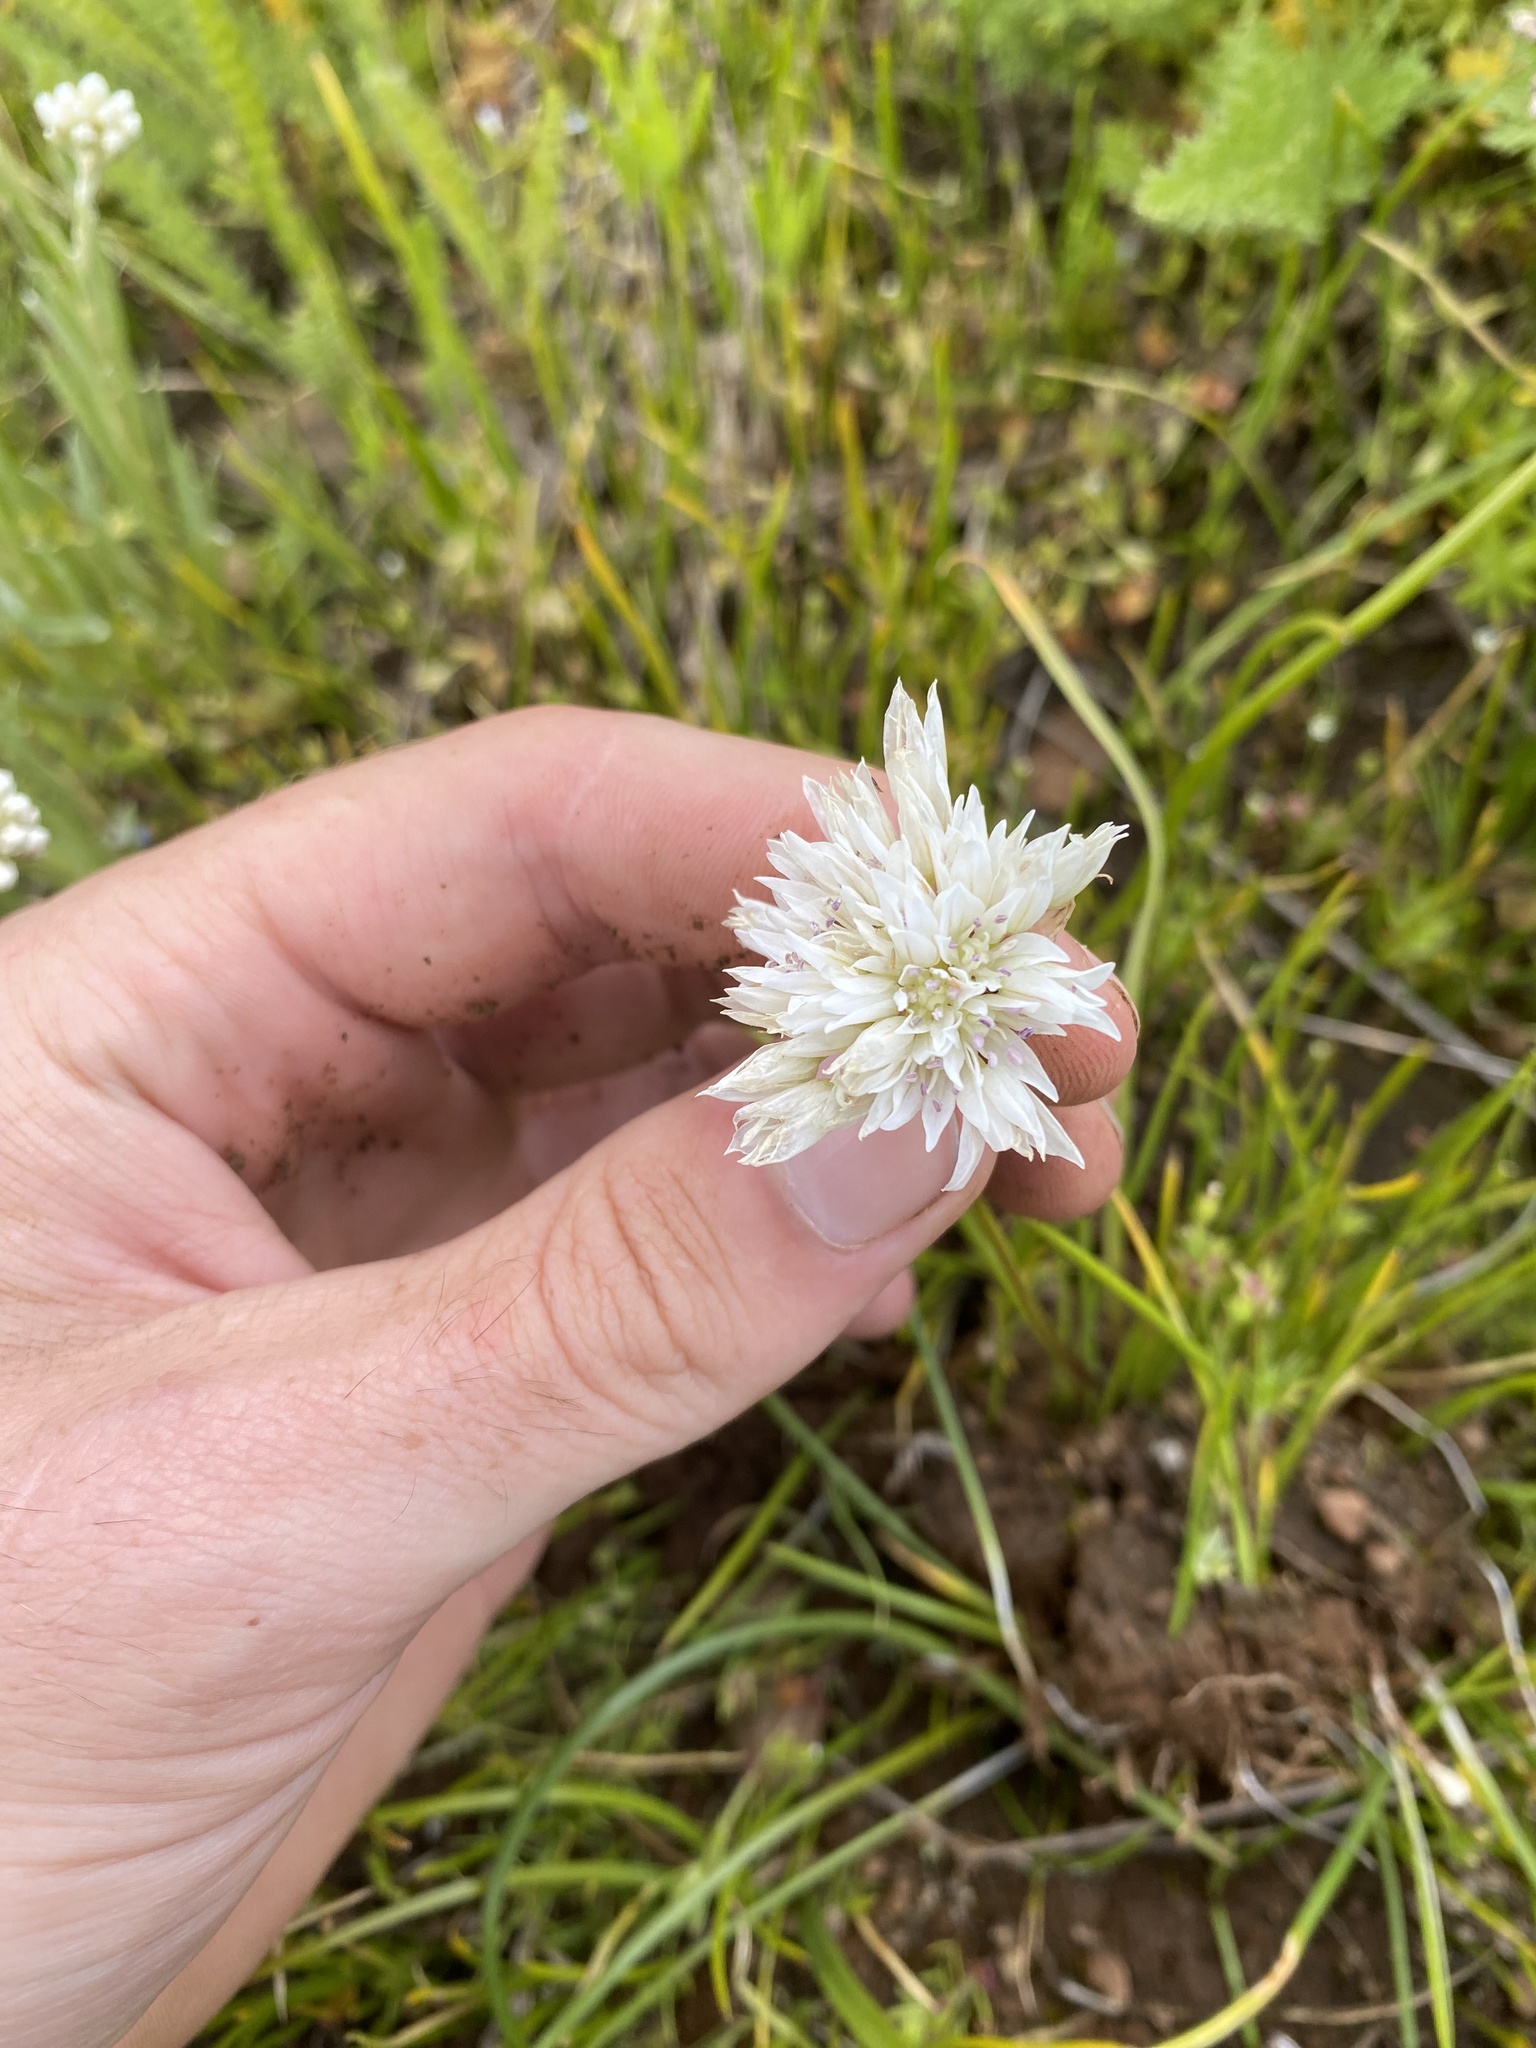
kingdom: Plantae
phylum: Tracheophyta
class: Liliopsida
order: Asparagales
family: Amaryllidaceae
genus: Allium
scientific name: Allium madidum
